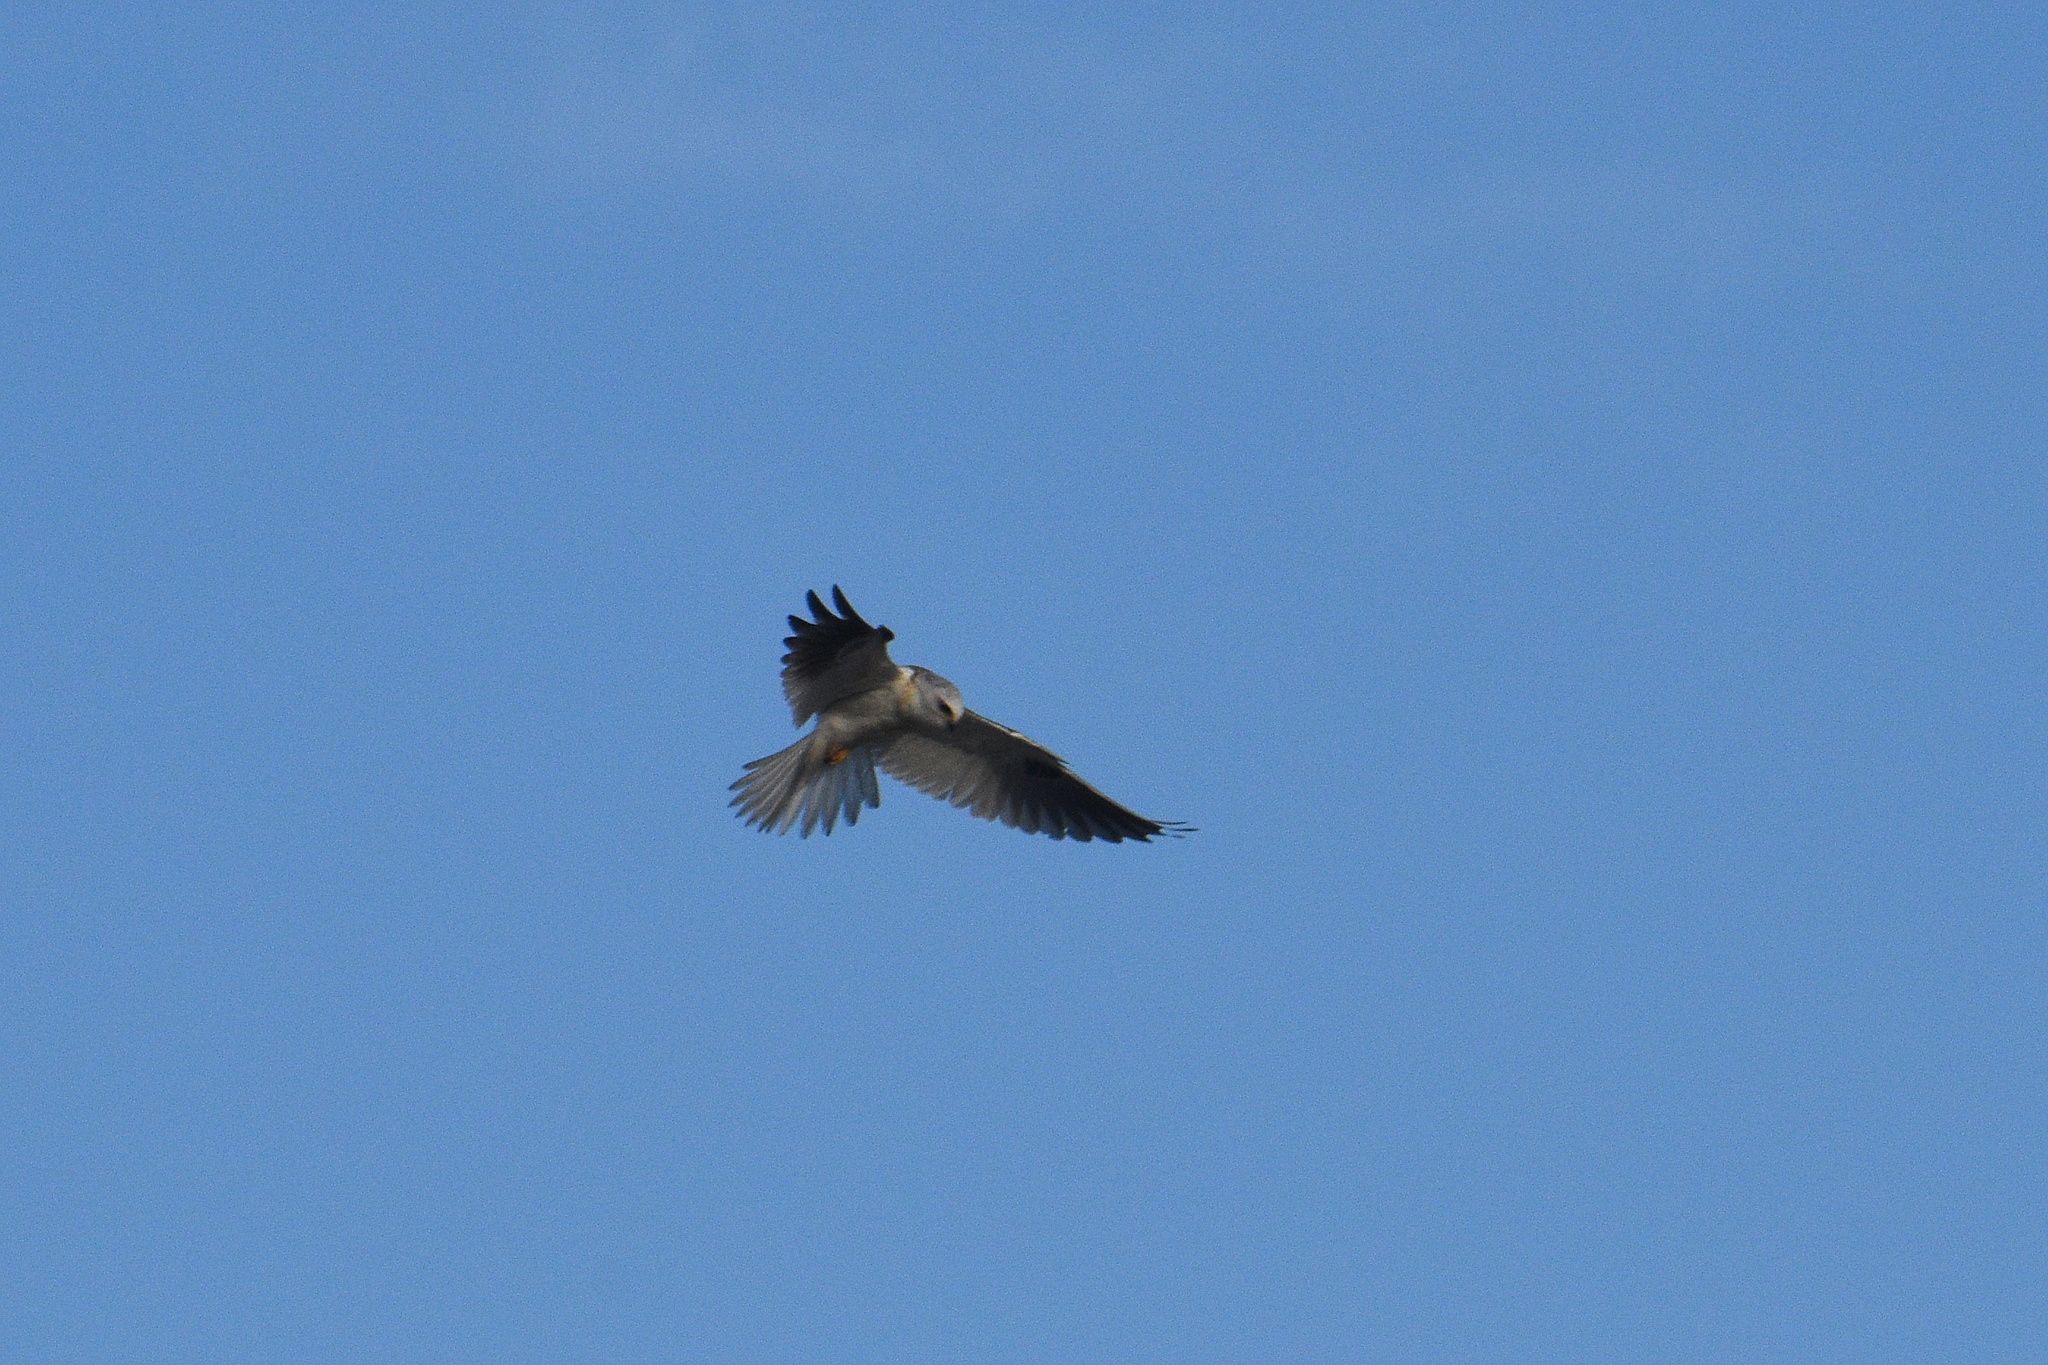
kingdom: Animalia
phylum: Chordata
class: Aves
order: Accipitriformes
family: Accipitridae
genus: Elanus
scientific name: Elanus leucurus
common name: White-tailed kite
